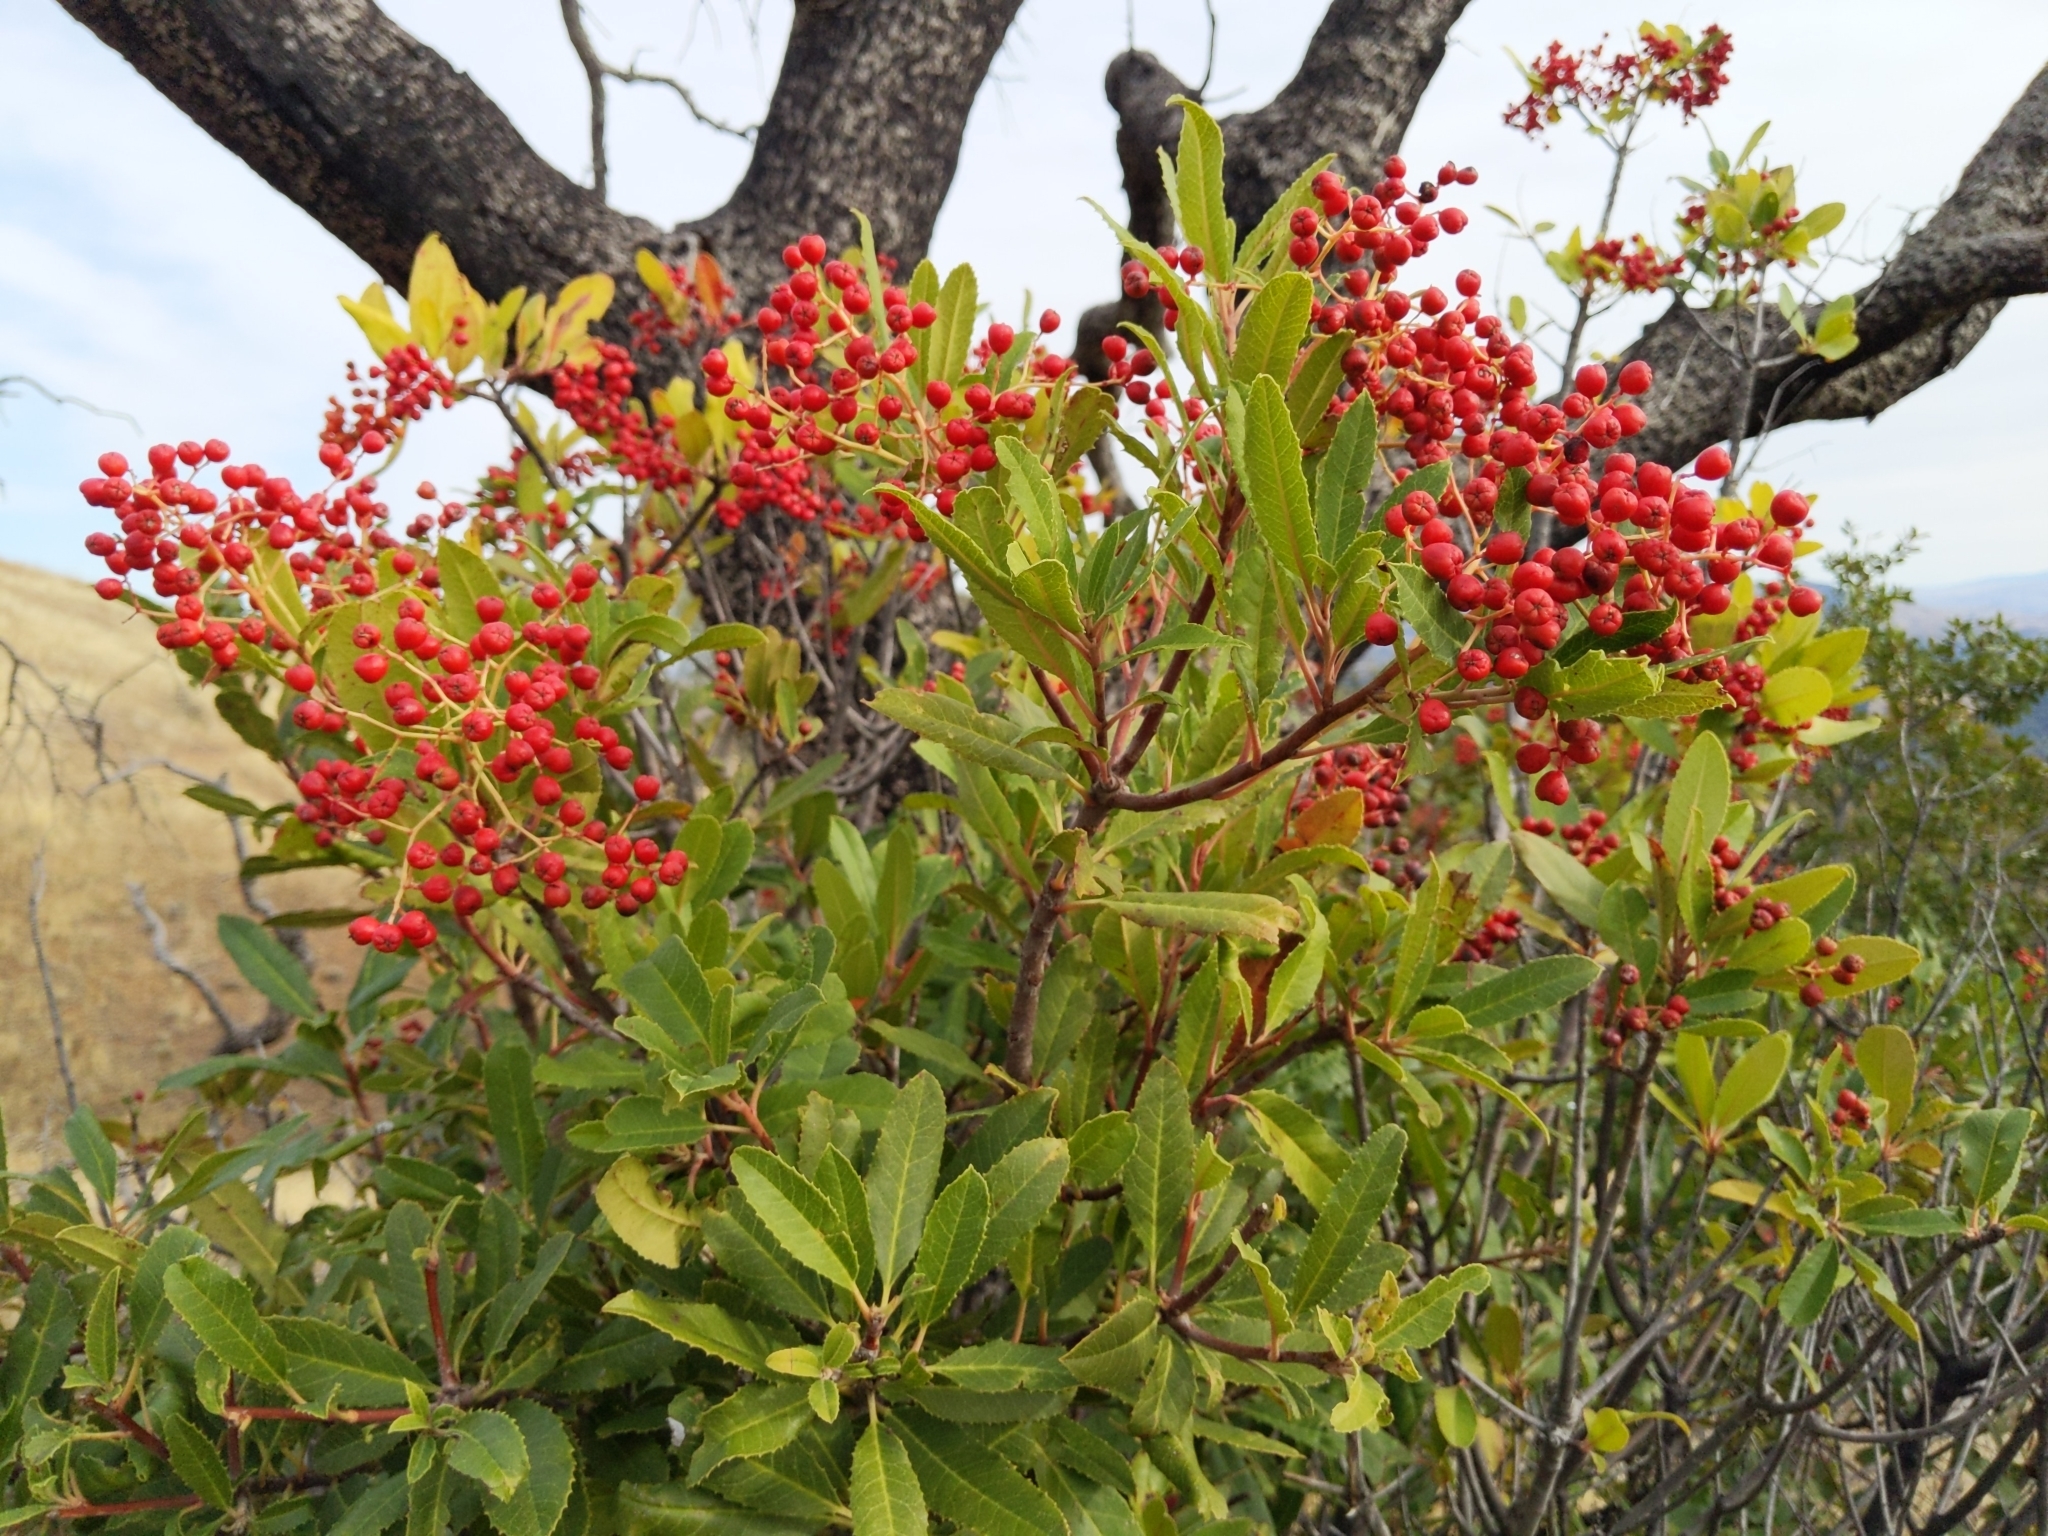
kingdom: Plantae
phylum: Tracheophyta
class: Magnoliopsida
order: Rosales
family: Rosaceae
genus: Heteromeles
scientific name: Heteromeles arbutifolia
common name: California-holly
